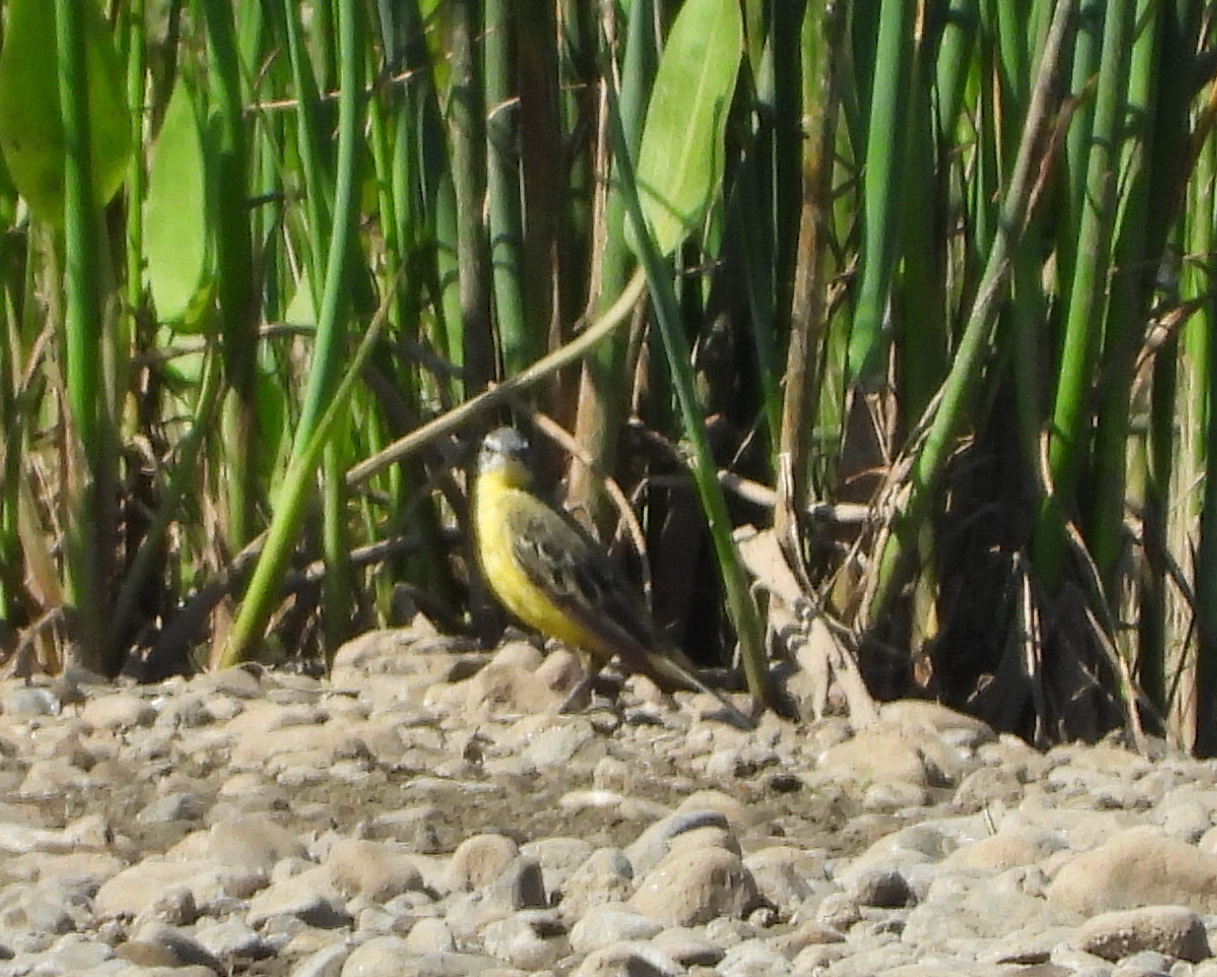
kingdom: Animalia
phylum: Chordata
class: Aves
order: Passeriformes
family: Motacillidae
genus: Motacilla
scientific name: Motacilla flava
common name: Western yellow wagtail
